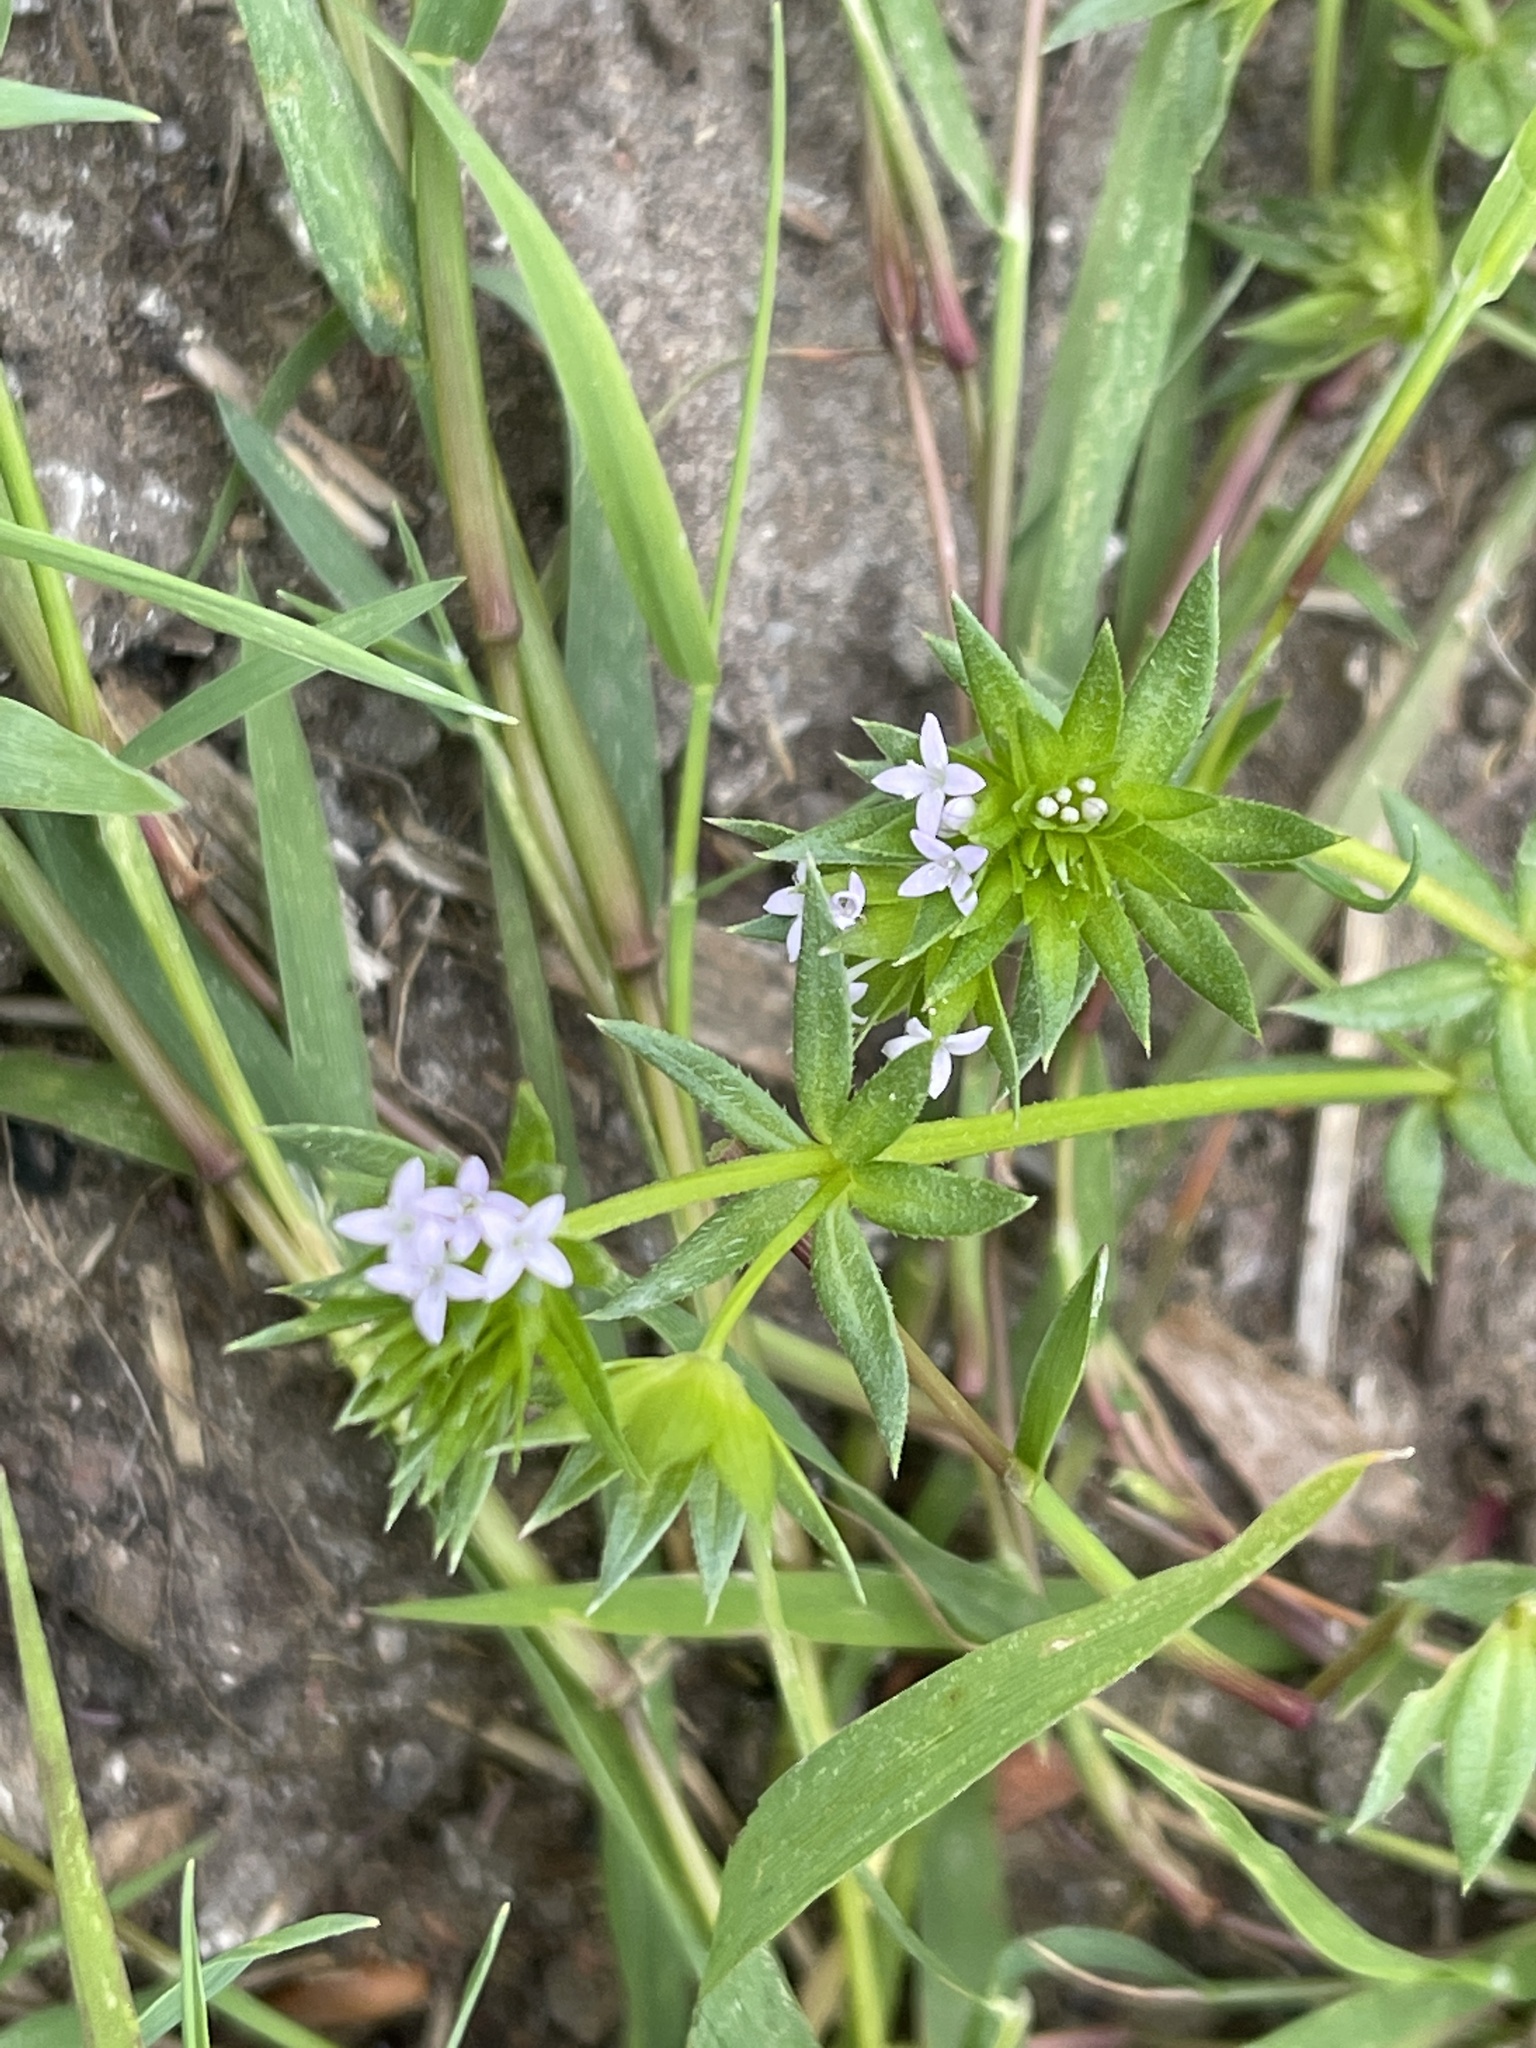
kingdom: Plantae
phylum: Tracheophyta
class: Magnoliopsida
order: Gentianales
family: Rubiaceae
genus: Sherardia
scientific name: Sherardia arvensis
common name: Field madder
